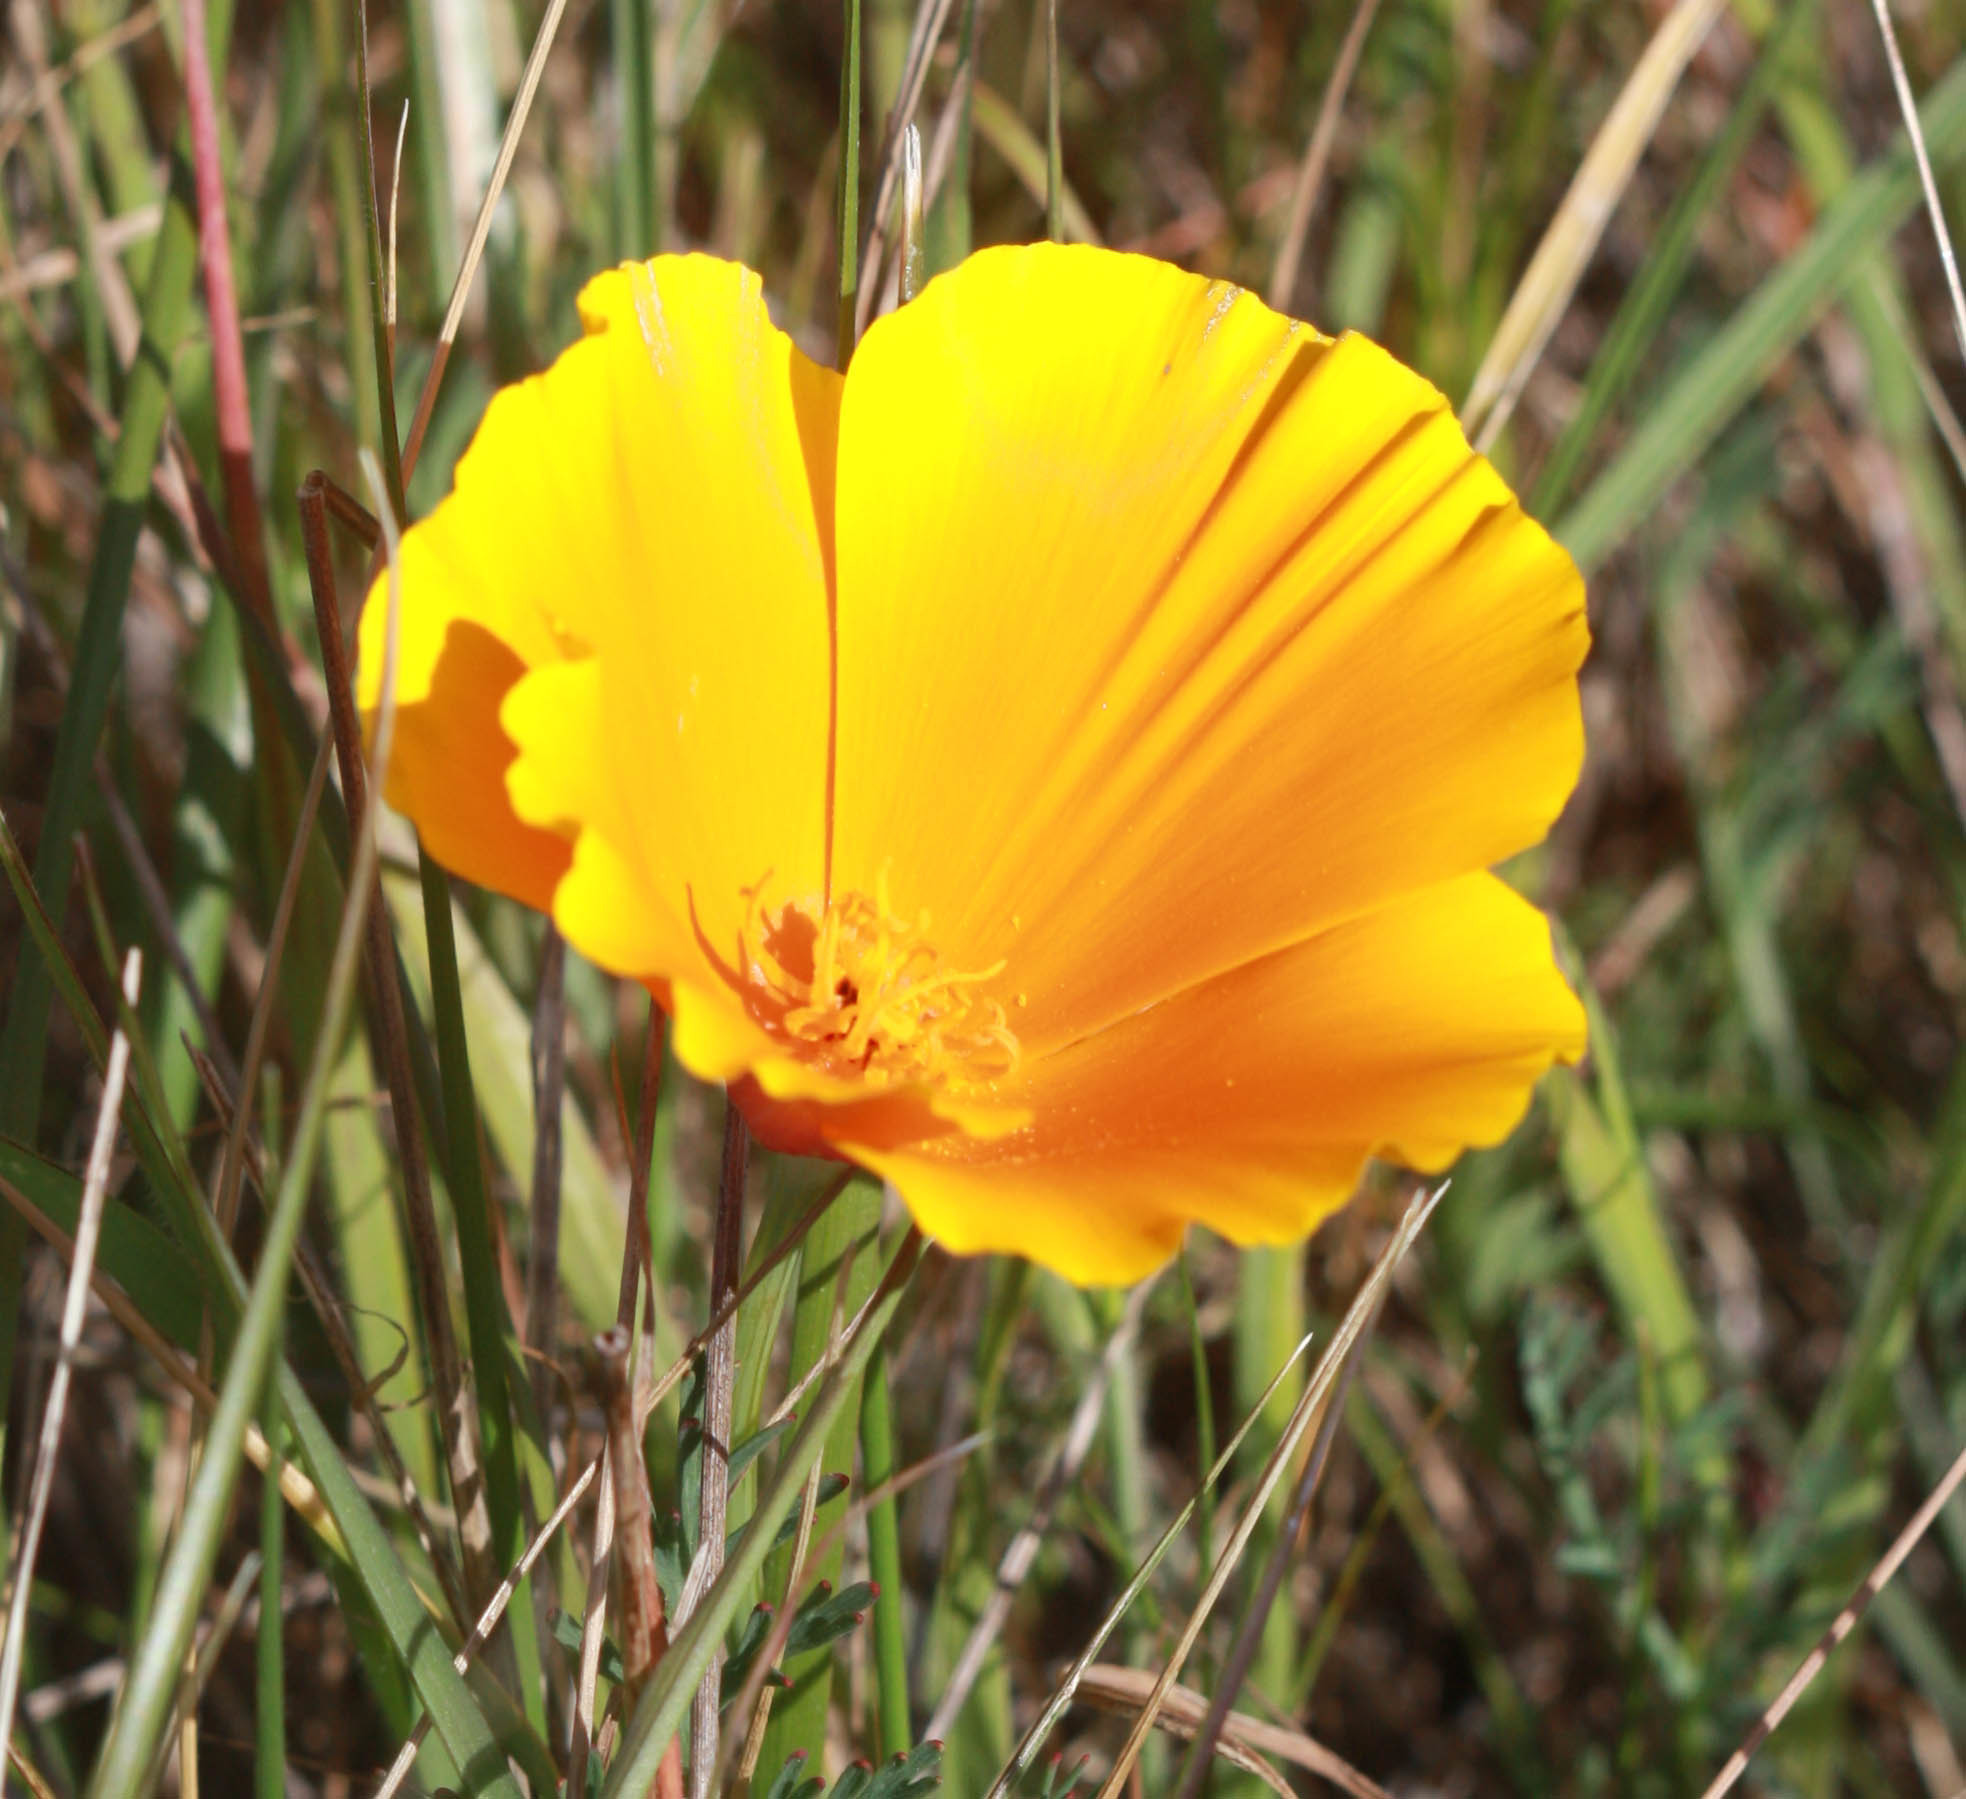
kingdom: Plantae
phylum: Tracheophyta
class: Magnoliopsida
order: Ranunculales
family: Papaveraceae
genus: Eschscholzia
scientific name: Eschscholzia californica
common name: California poppy
